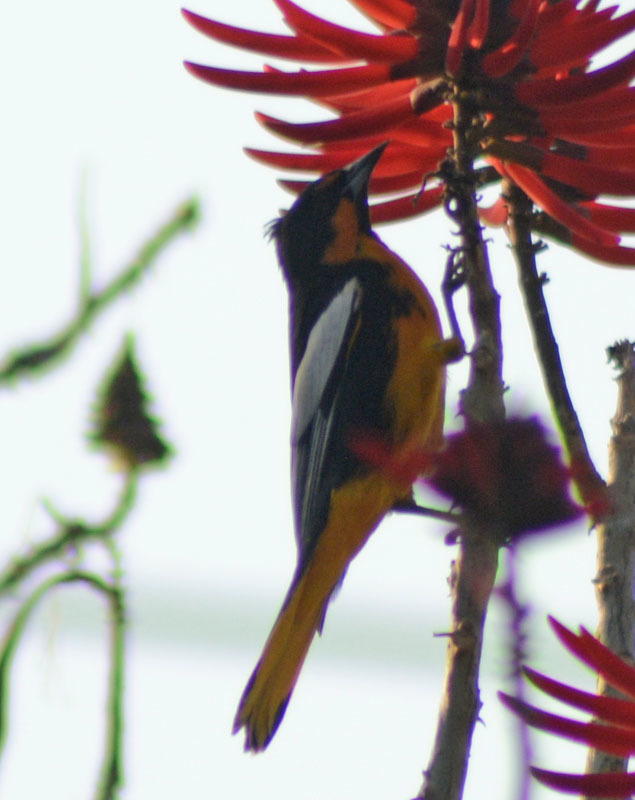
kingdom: Animalia
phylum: Chordata
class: Aves
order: Passeriformes
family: Icteridae
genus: Icterus
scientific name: Icterus abeillei
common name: Black-backed oriole
